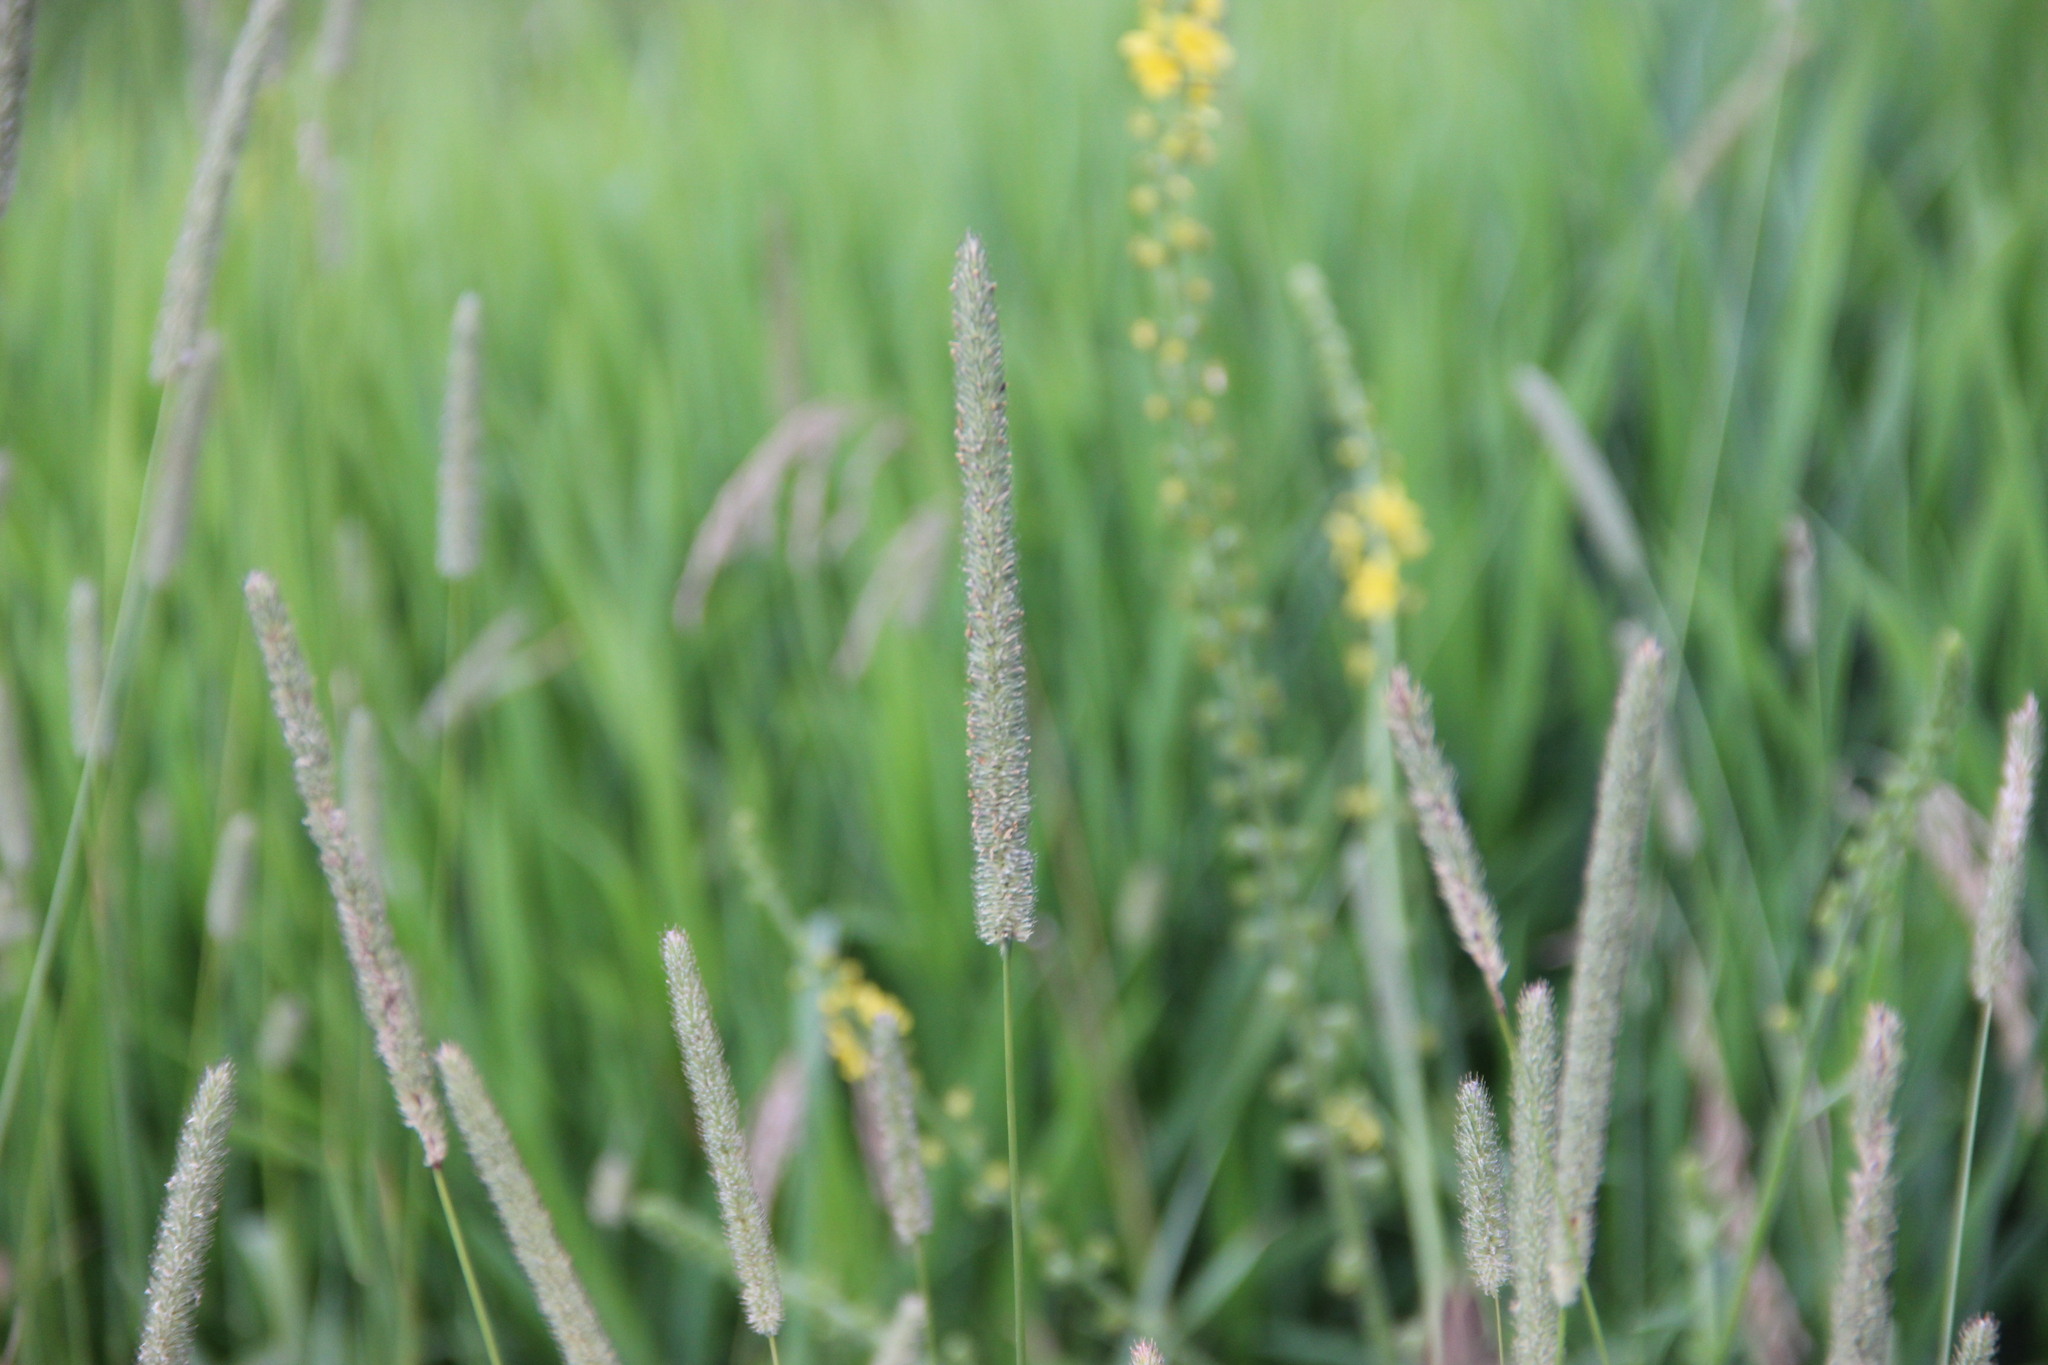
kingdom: Plantae
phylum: Tracheophyta
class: Liliopsida
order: Poales
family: Poaceae
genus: Phleum
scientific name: Phleum pratense
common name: Timothy grass
